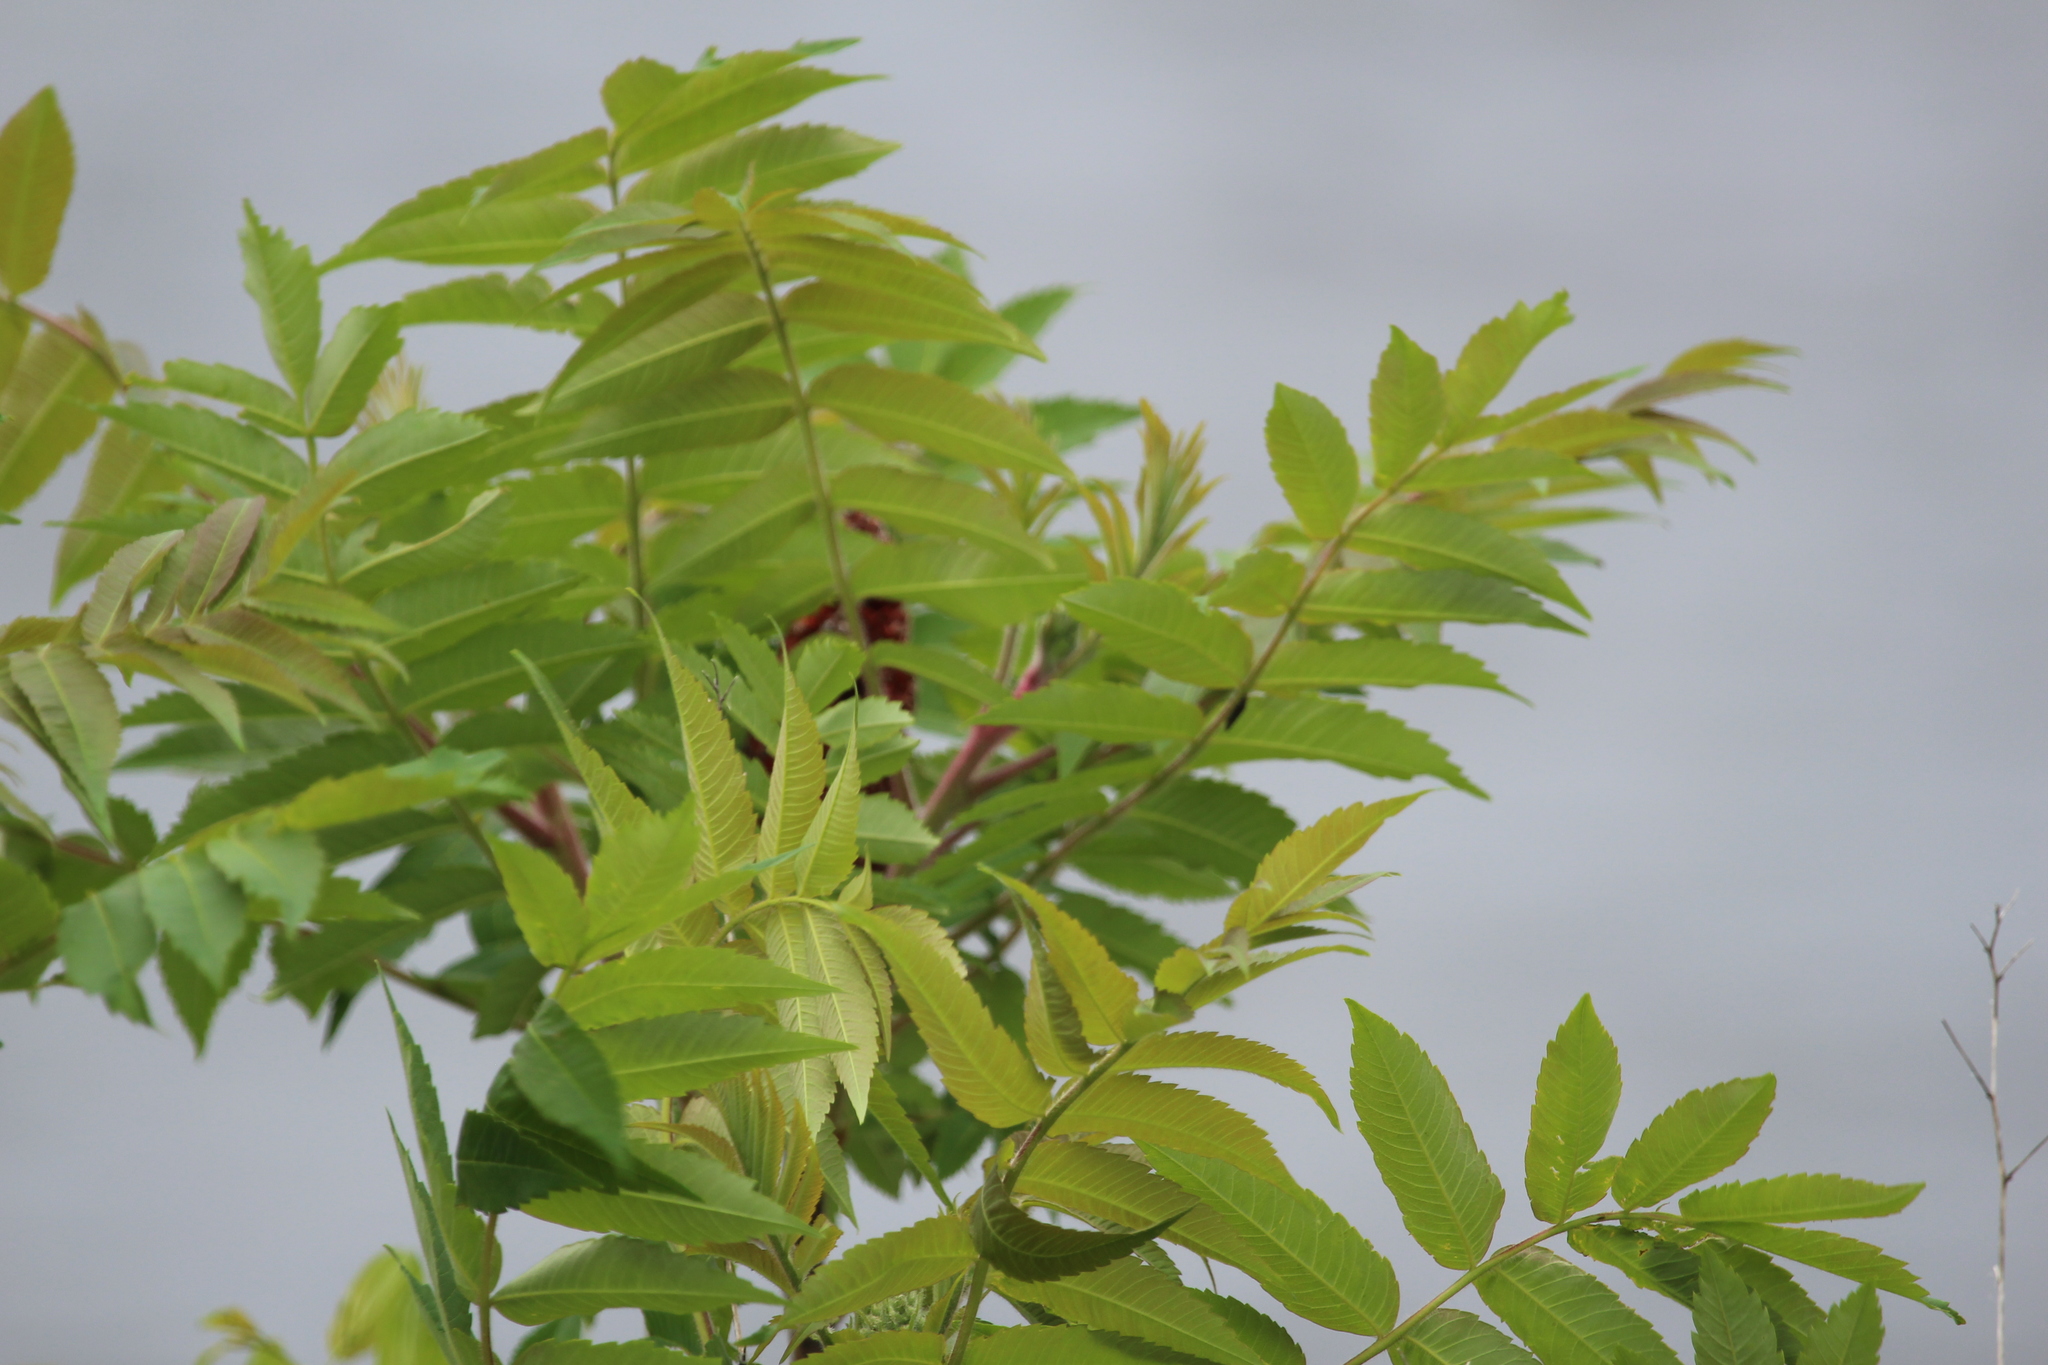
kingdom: Plantae
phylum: Tracheophyta
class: Magnoliopsida
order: Sapindales
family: Anacardiaceae
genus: Rhus
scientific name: Rhus typhina
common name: Staghorn sumac
